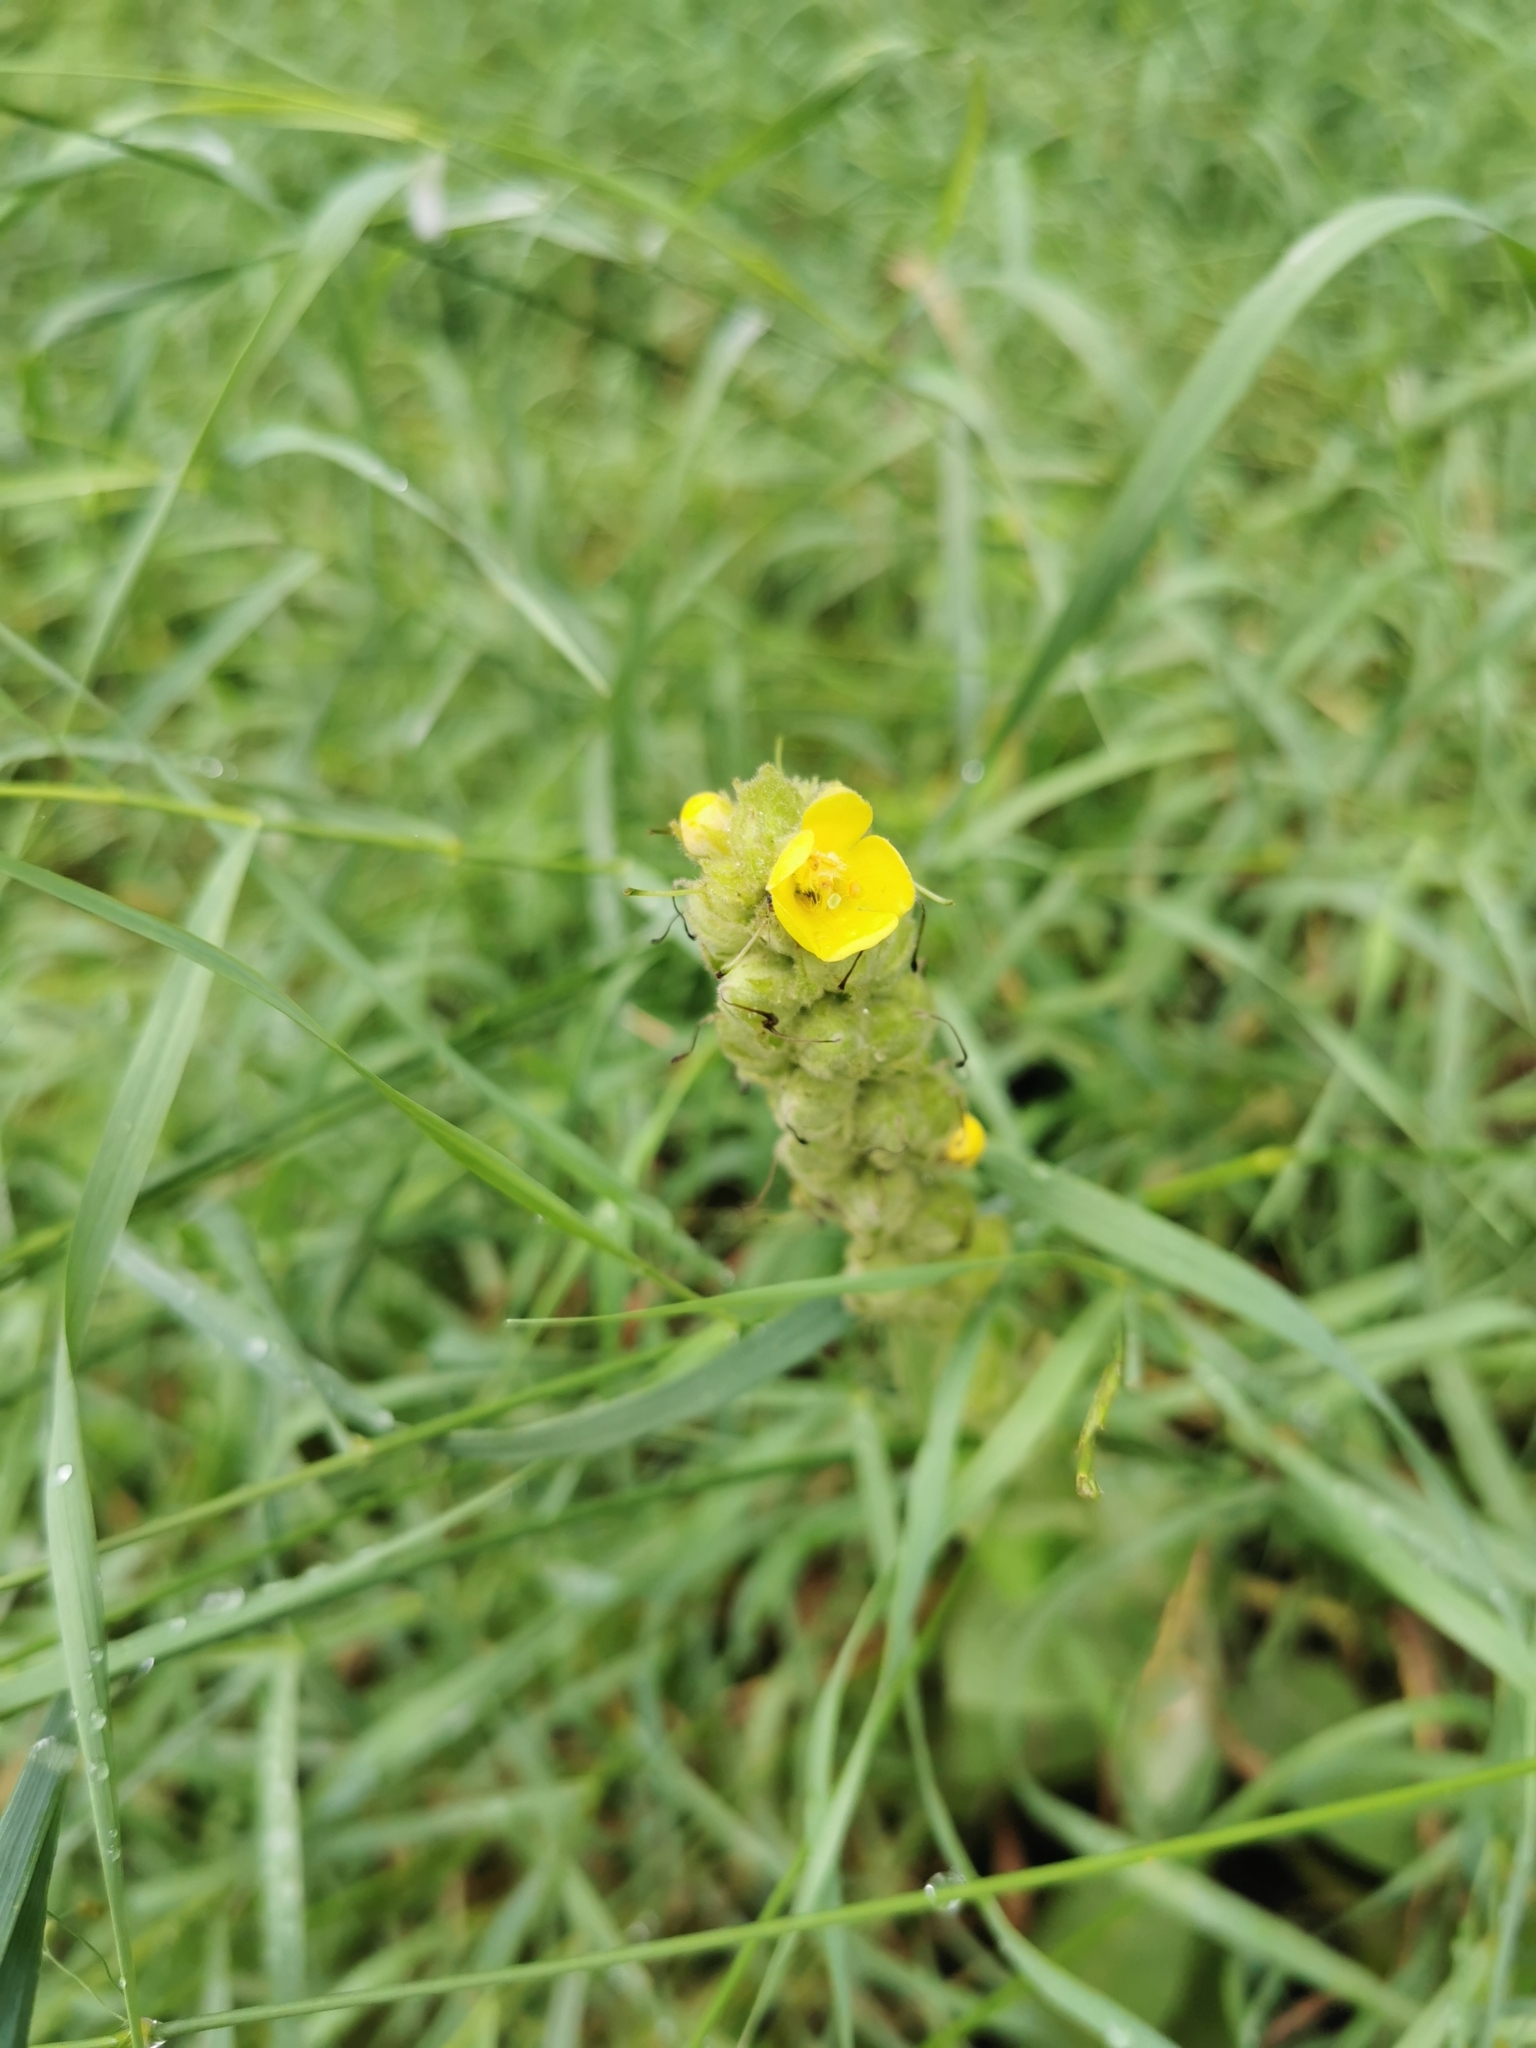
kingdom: Plantae
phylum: Tracheophyta
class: Magnoliopsida
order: Lamiales
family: Scrophulariaceae
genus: Verbascum
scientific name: Verbascum thapsus
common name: Common mullein
